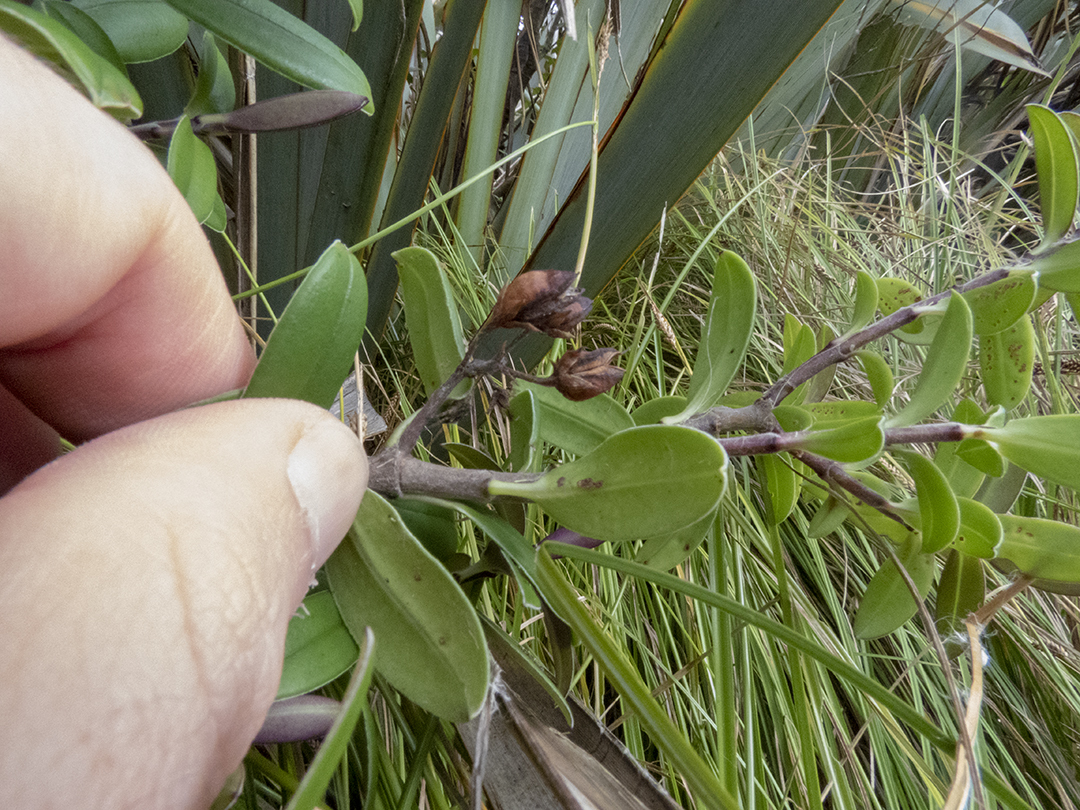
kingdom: Plantae
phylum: Tracheophyta
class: Magnoliopsida
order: Lamiales
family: Plantaginaceae
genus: Veronica
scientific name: Veronica elliptica
